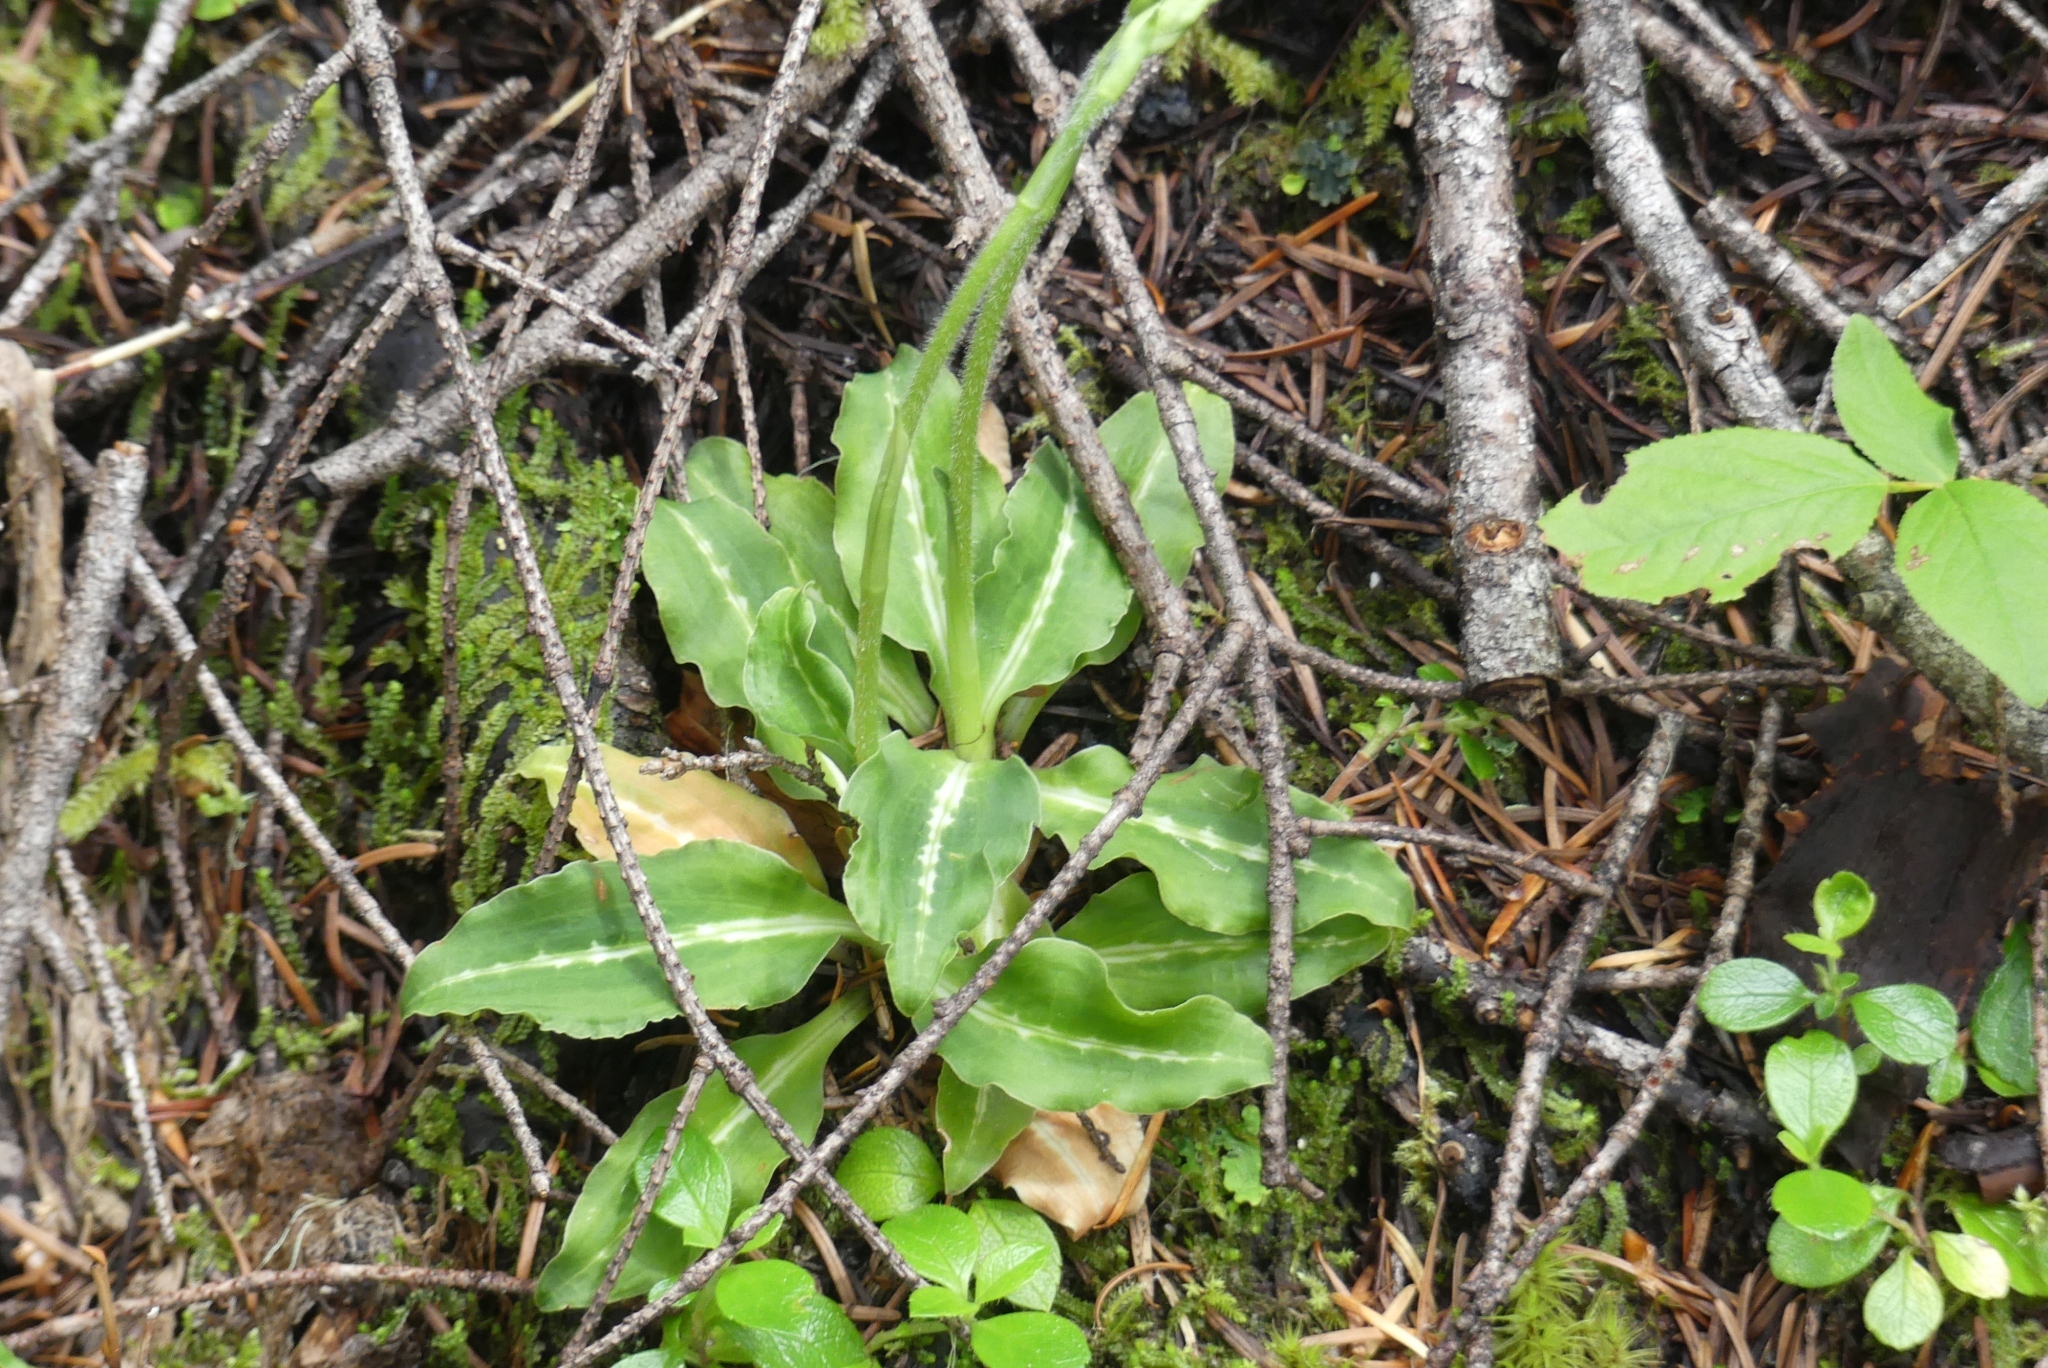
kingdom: Plantae
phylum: Tracheophyta
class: Liliopsida
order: Asparagales
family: Orchidaceae
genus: Goodyera
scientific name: Goodyera oblongifolia
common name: Giant rattlesnake-plantain
